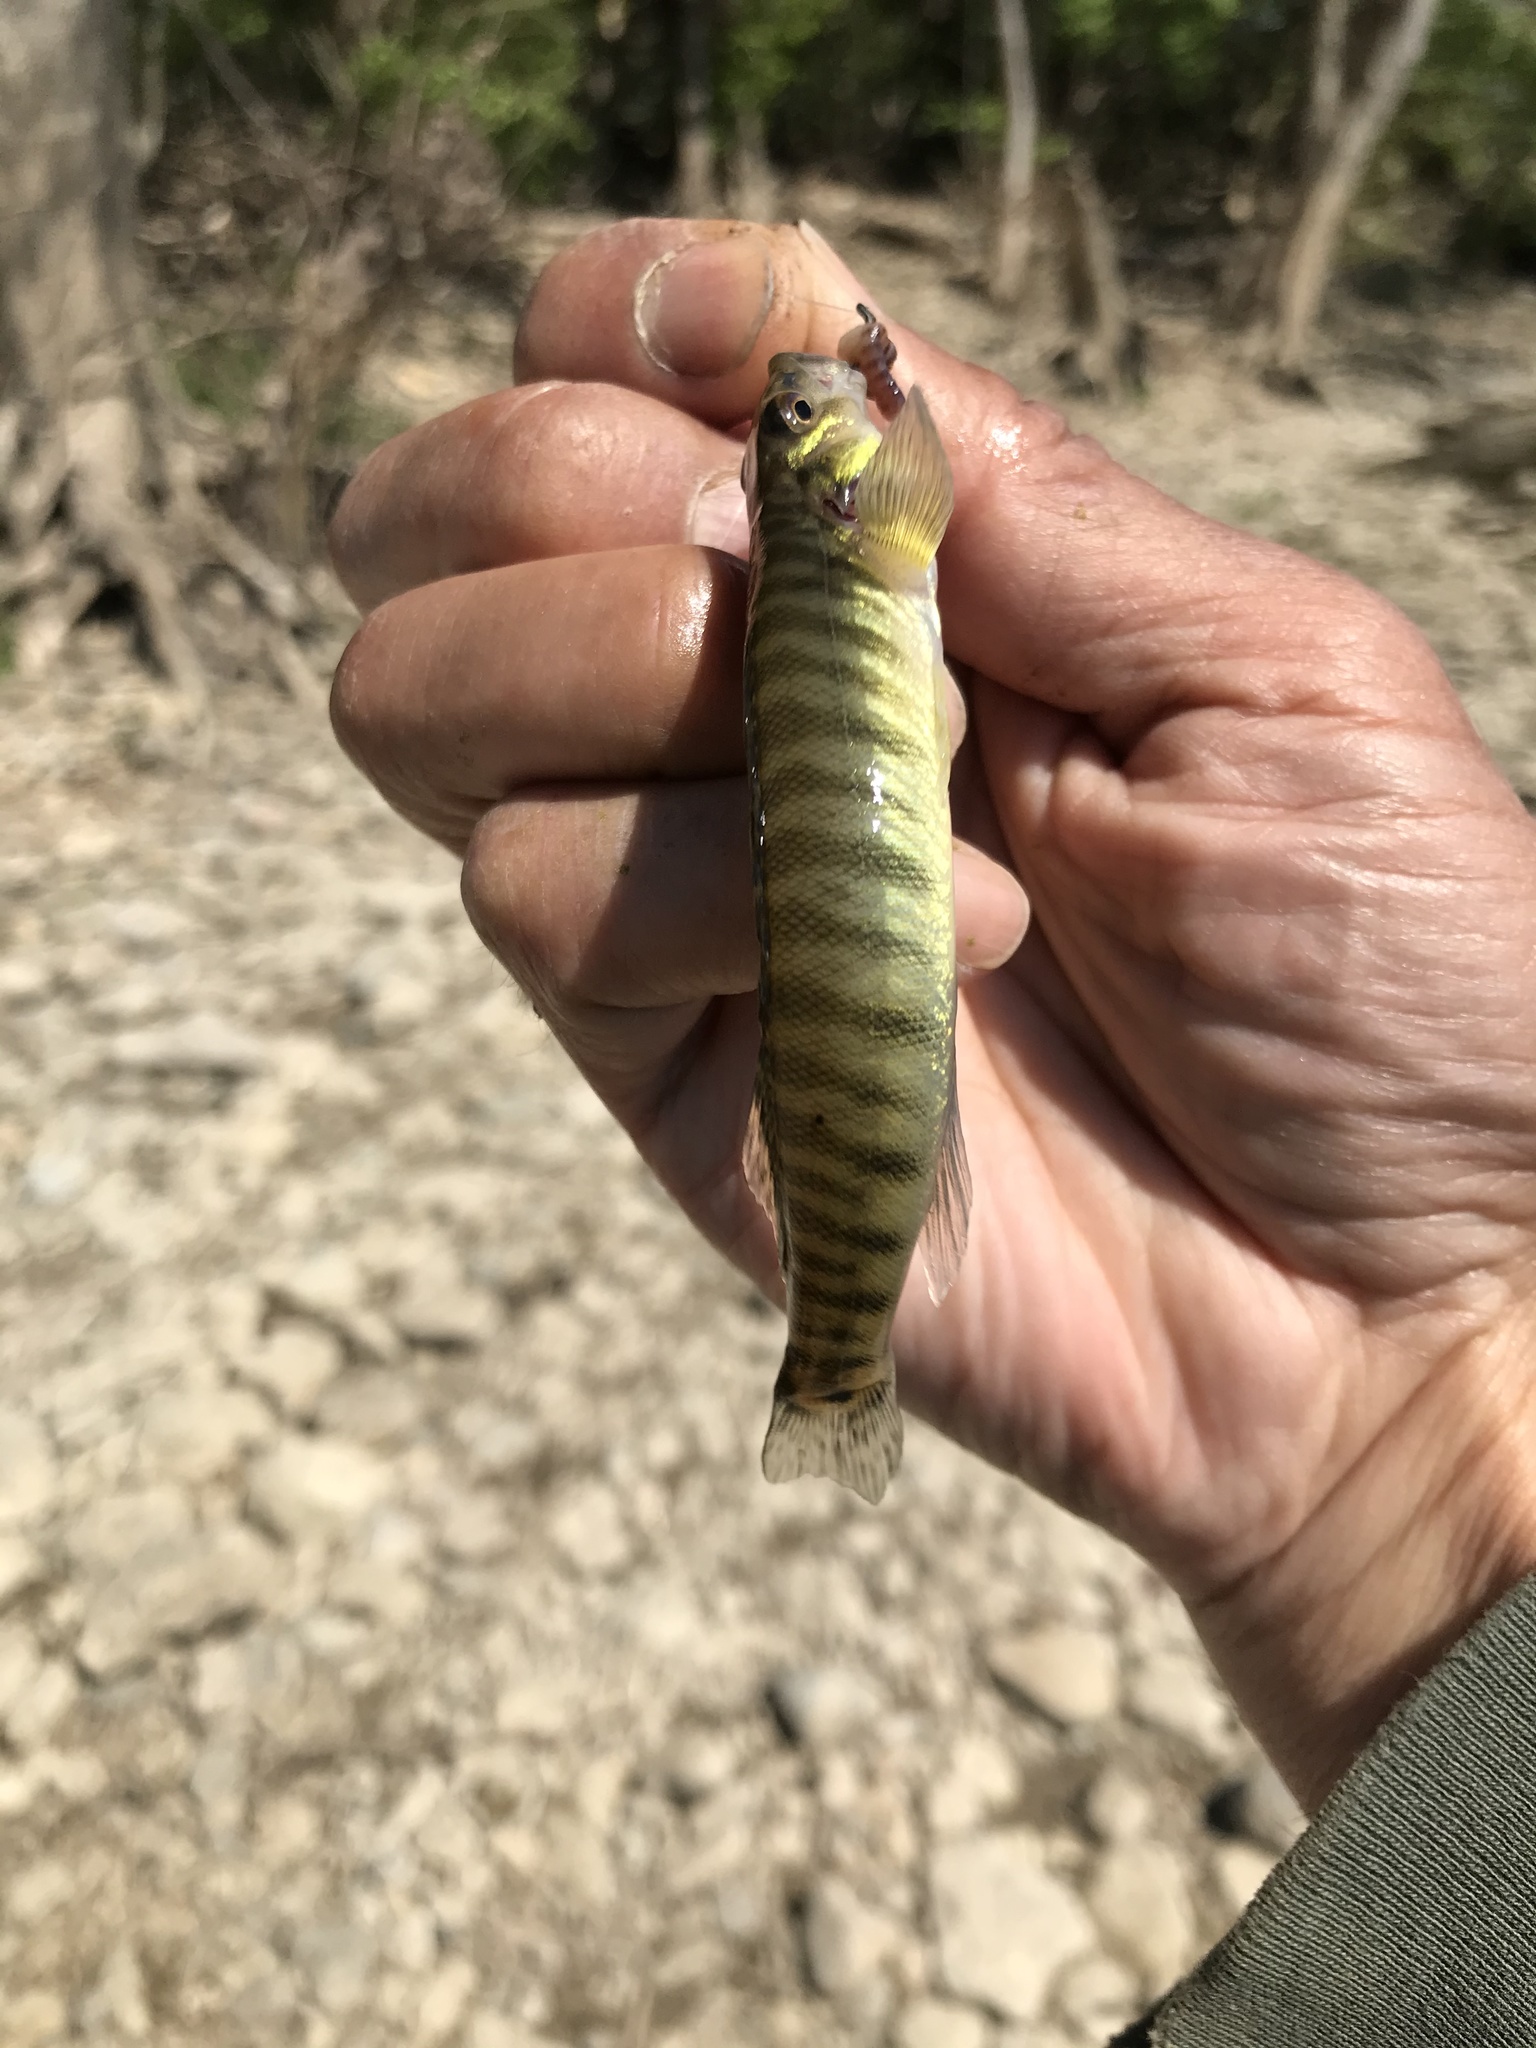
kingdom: Animalia
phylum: Chordata
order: Perciformes
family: Percidae
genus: Percina
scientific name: Percina caprodes
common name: Logperch
